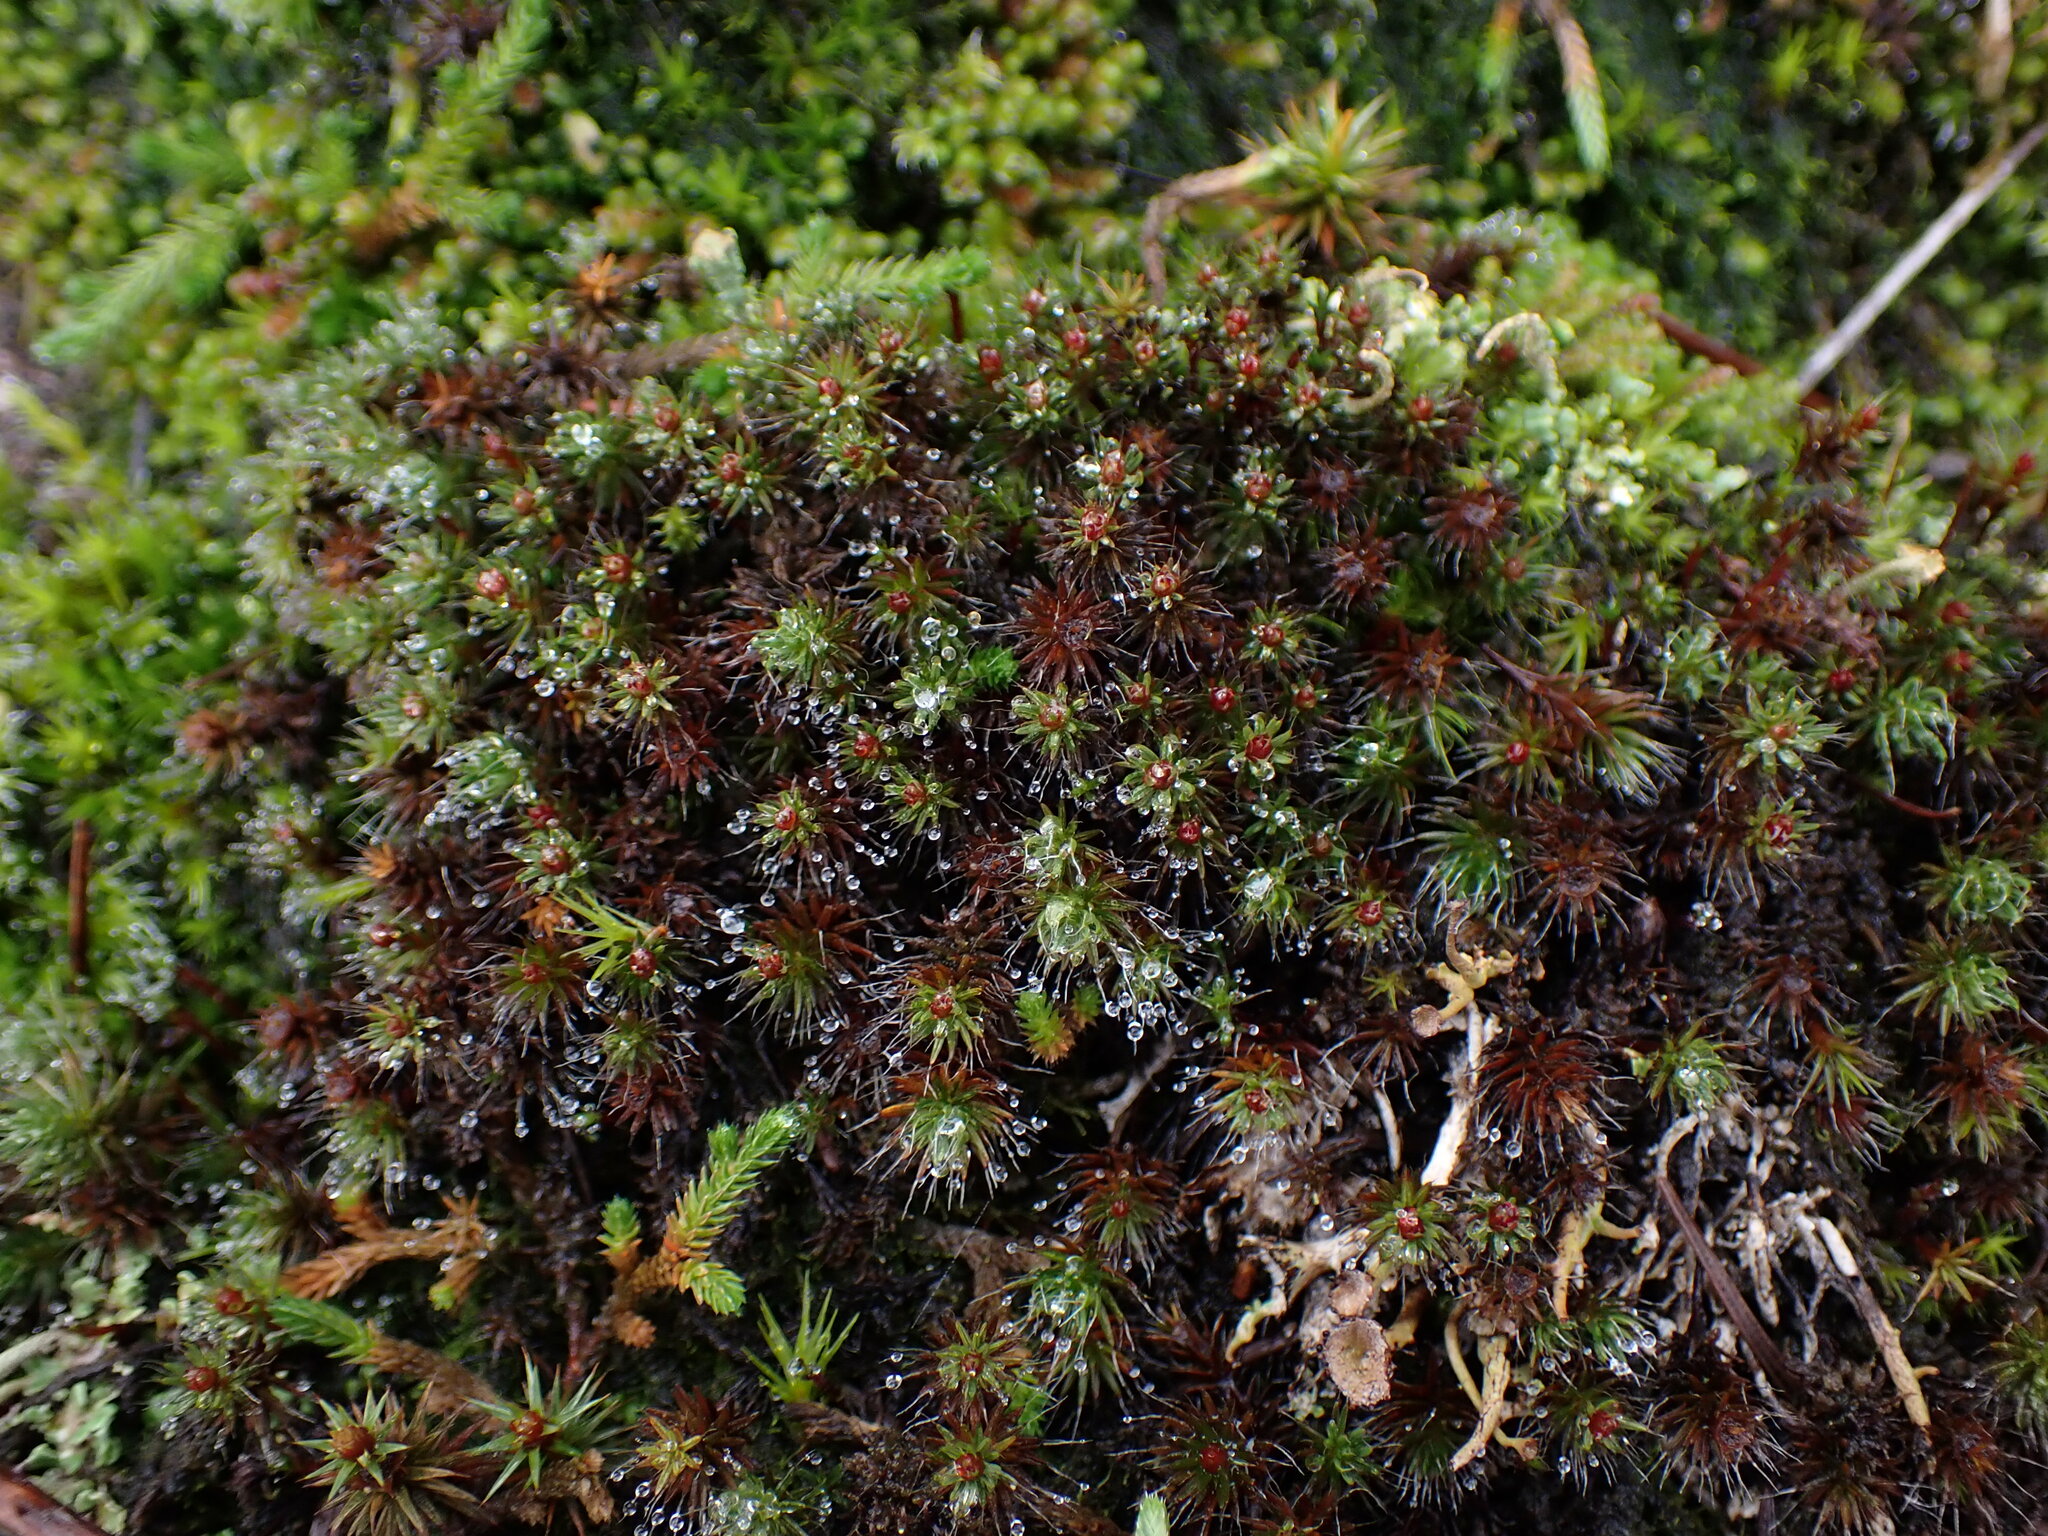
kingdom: Plantae
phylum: Bryophyta
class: Polytrichopsida
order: Polytrichales
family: Polytrichaceae
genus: Polytrichum
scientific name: Polytrichum piliferum
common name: Bristly haircap
